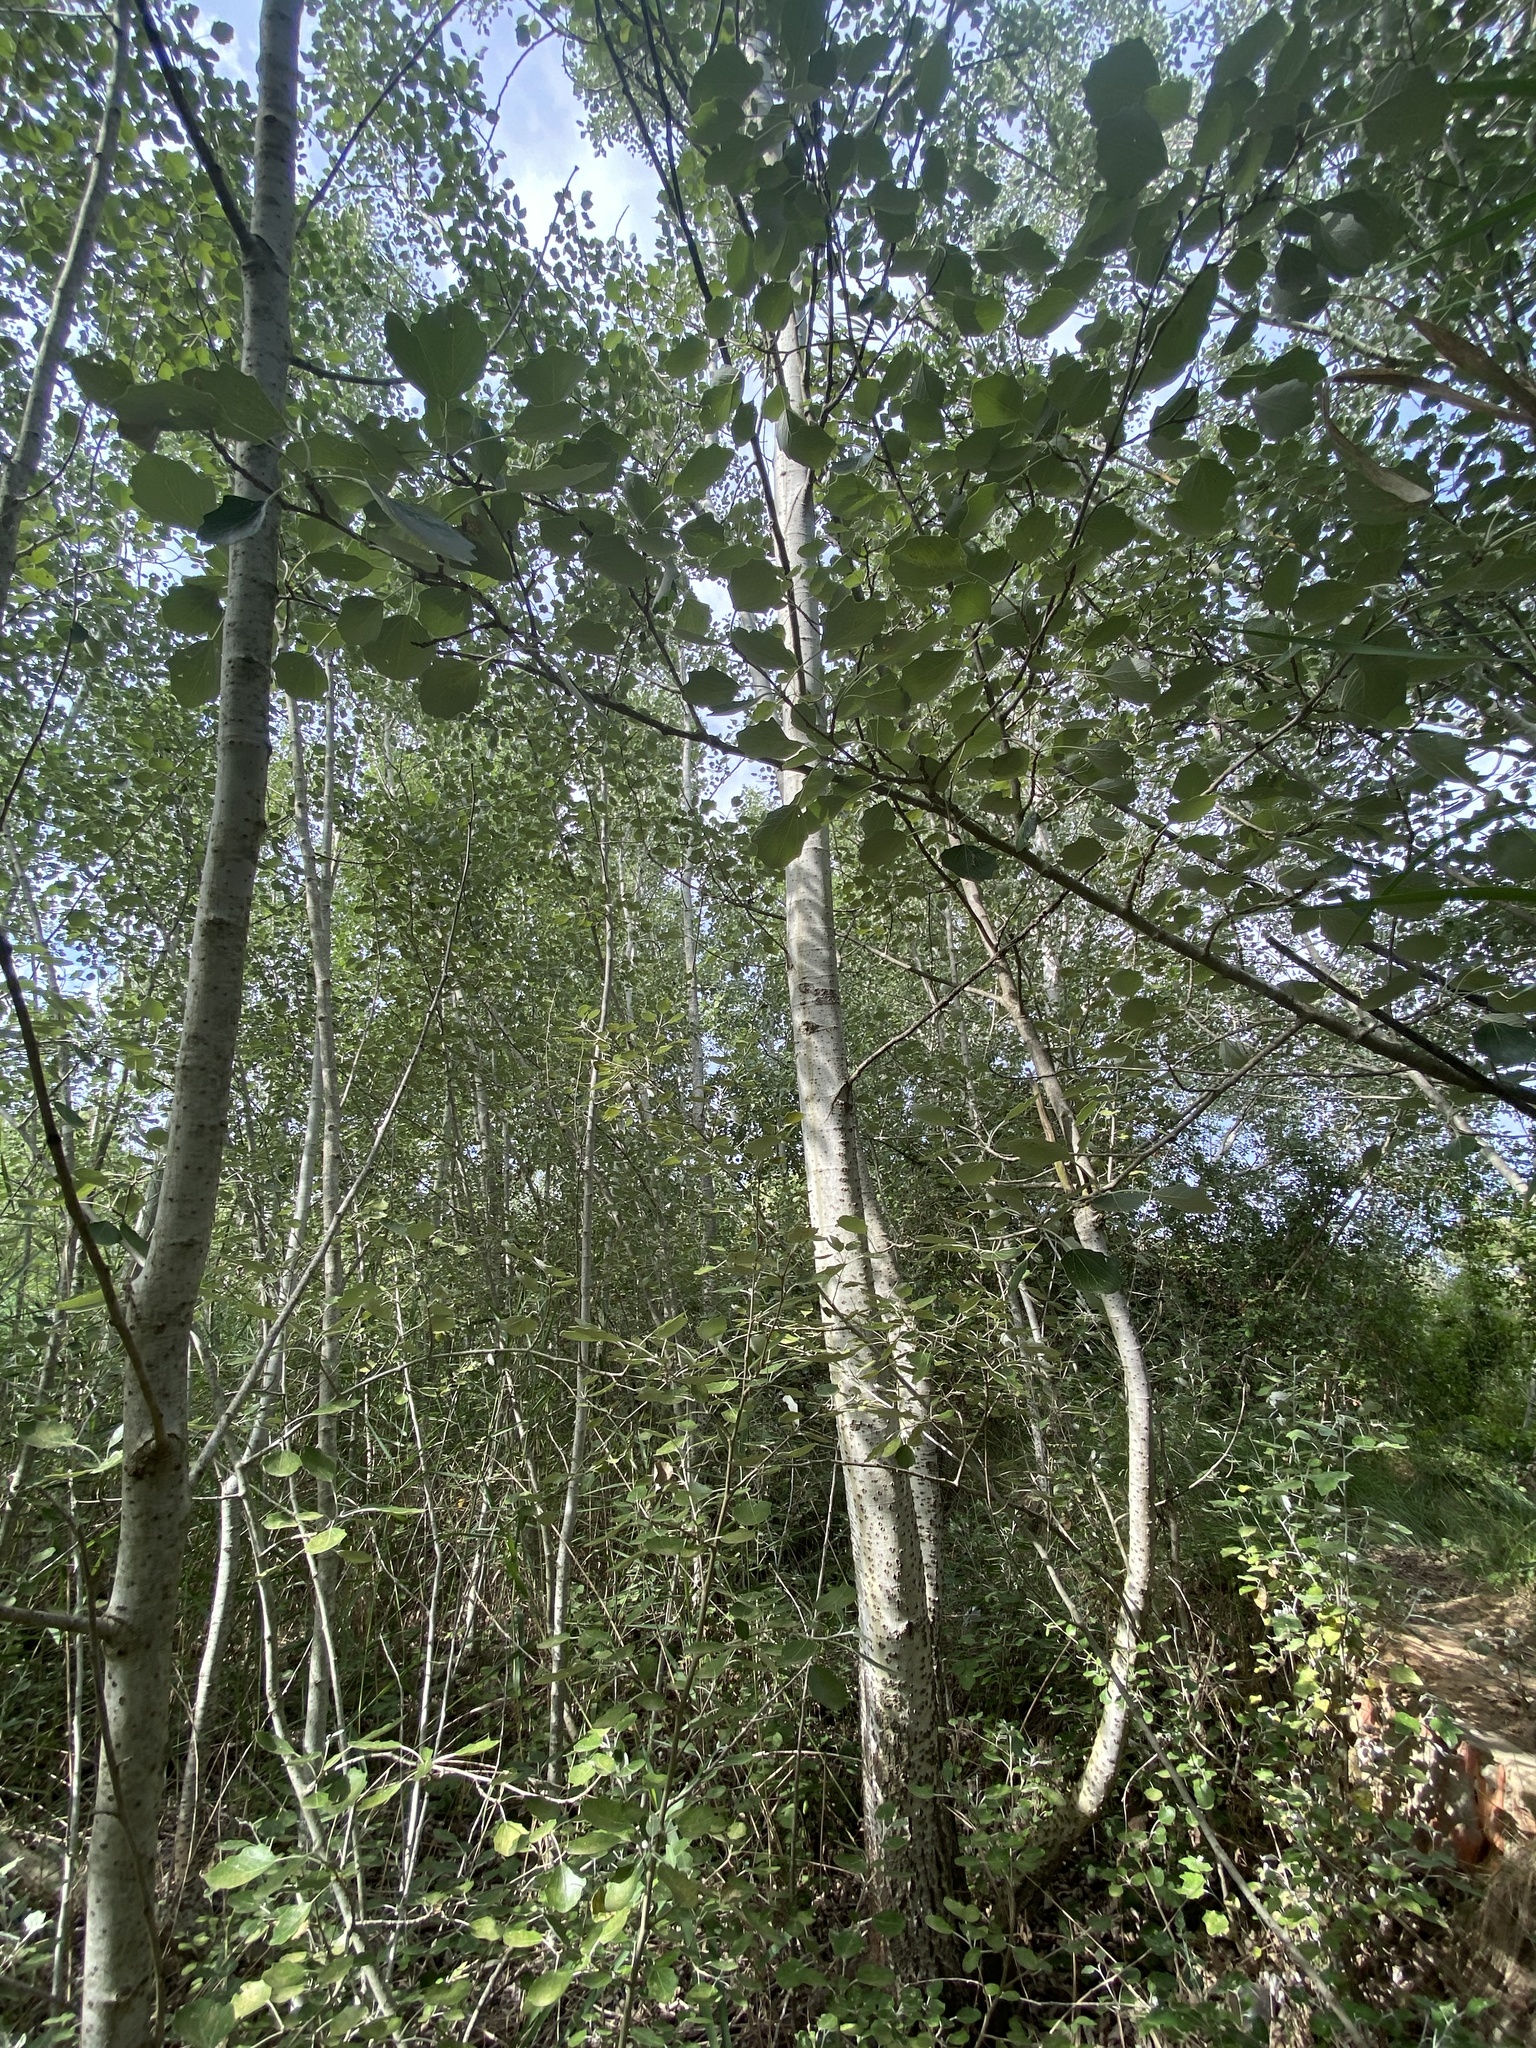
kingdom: Plantae
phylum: Tracheophyta
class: Magnoliopsida
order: Malpighiales
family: Salicaceae
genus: Populus
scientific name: Populus alba
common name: White poplar
